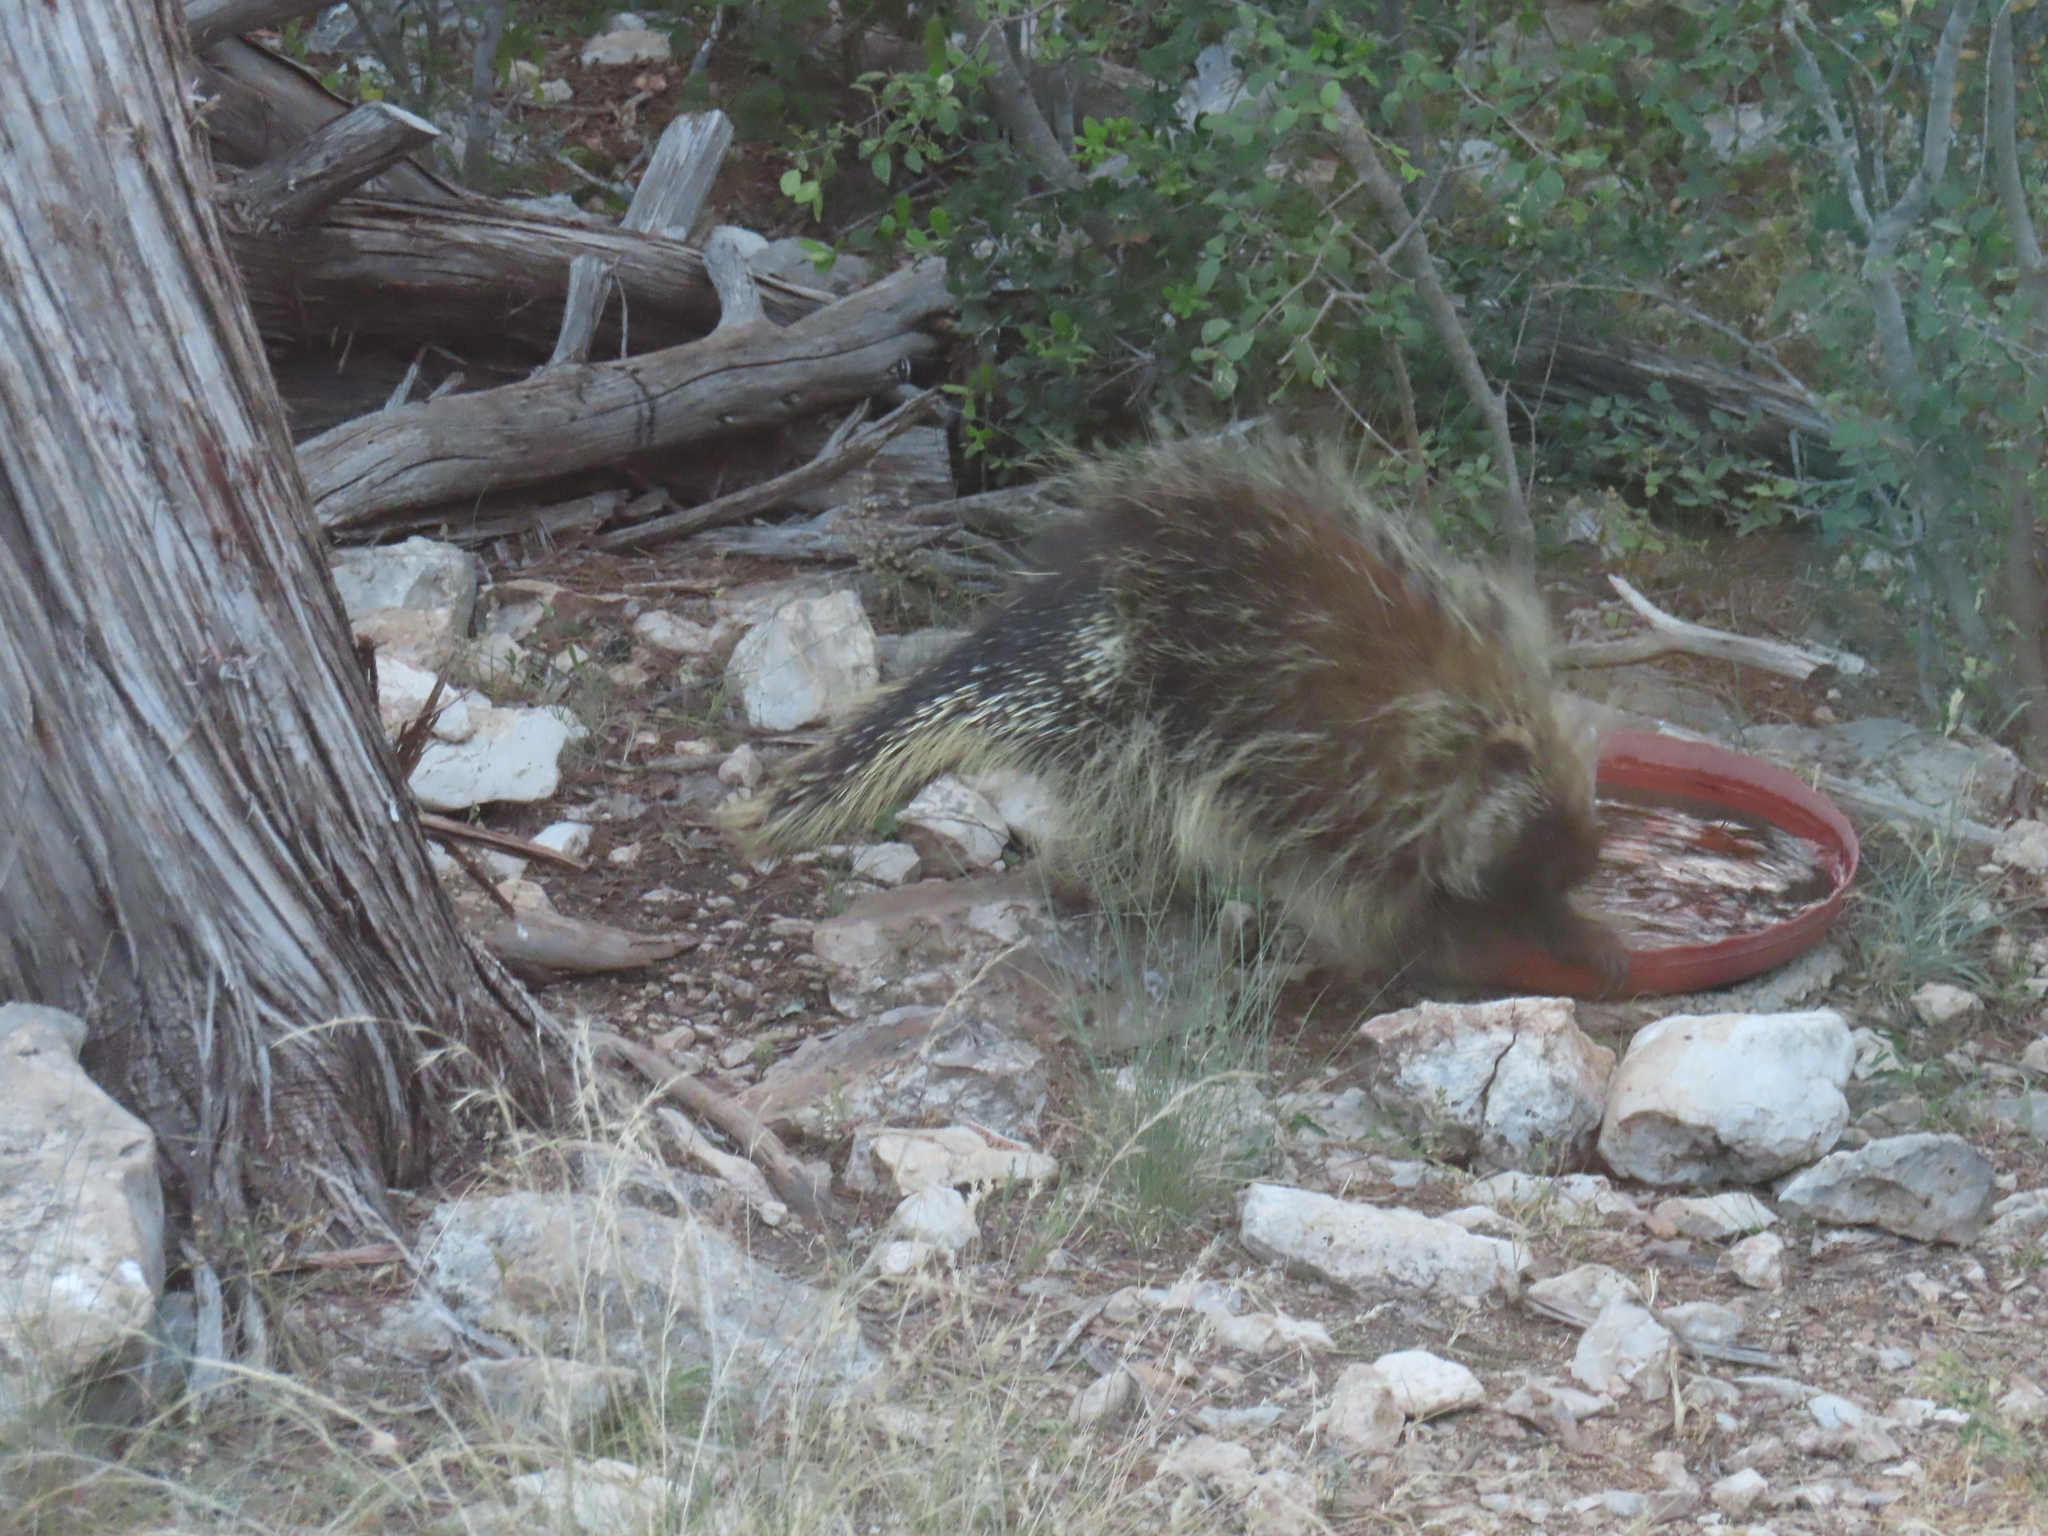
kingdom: Animalia
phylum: Chordata
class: Mammalia
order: Rodentia
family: Erethizontidae
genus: Erethizon
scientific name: Erethizon dorsatus
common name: North american porcupine
